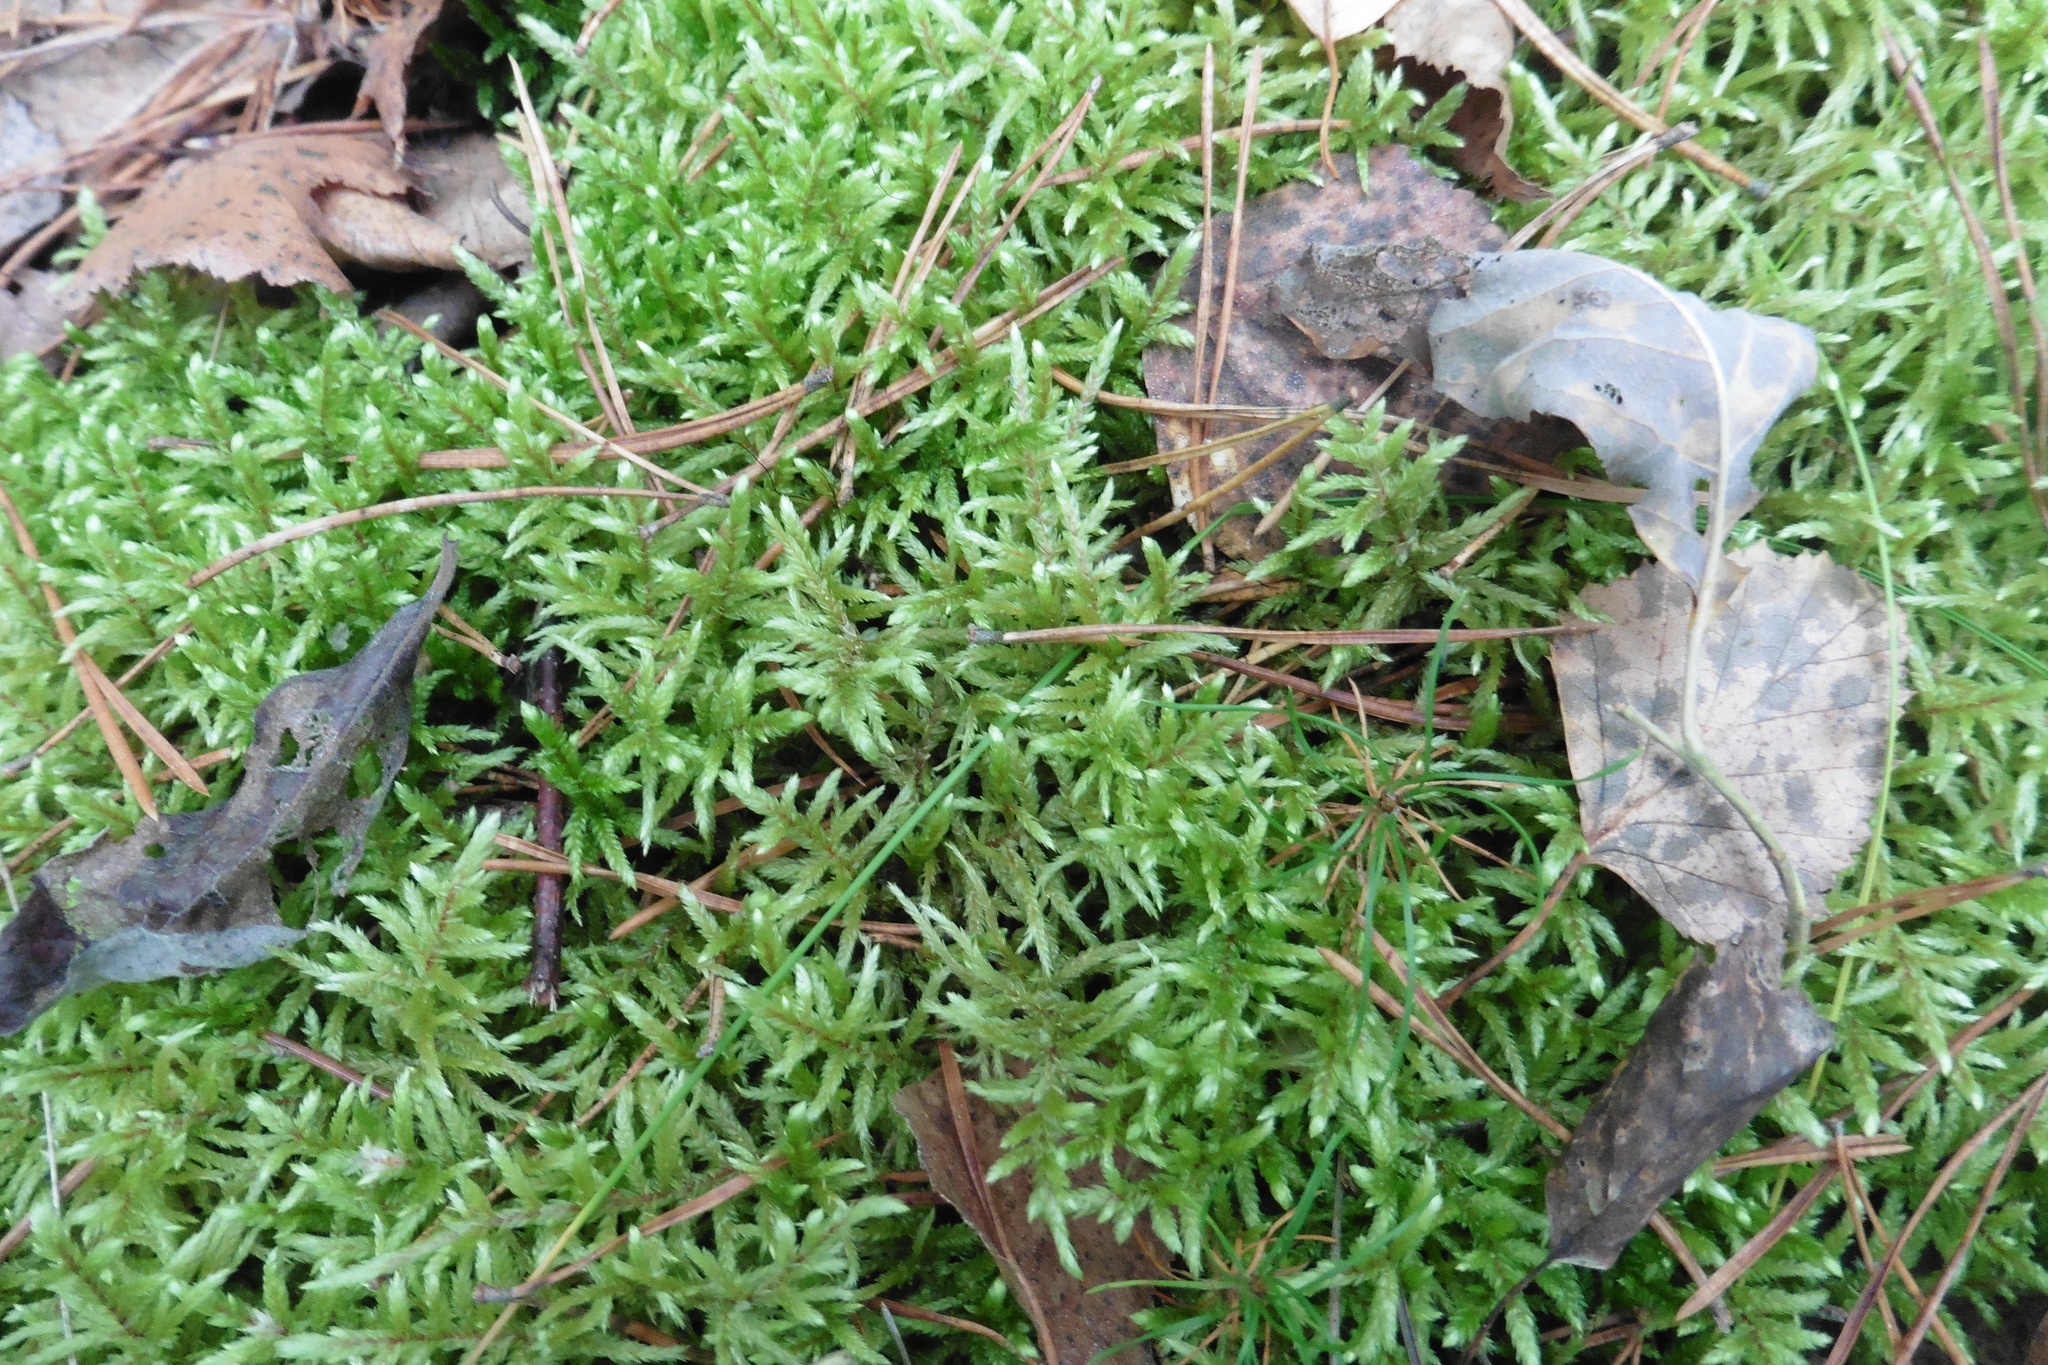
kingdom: Plantae
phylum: Bryophyta
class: Bryopsida
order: Hypnales
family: Hylocomiaceae
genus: Pleurozium
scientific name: Pleurozium schreberi
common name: Red-stemmed feather moss
